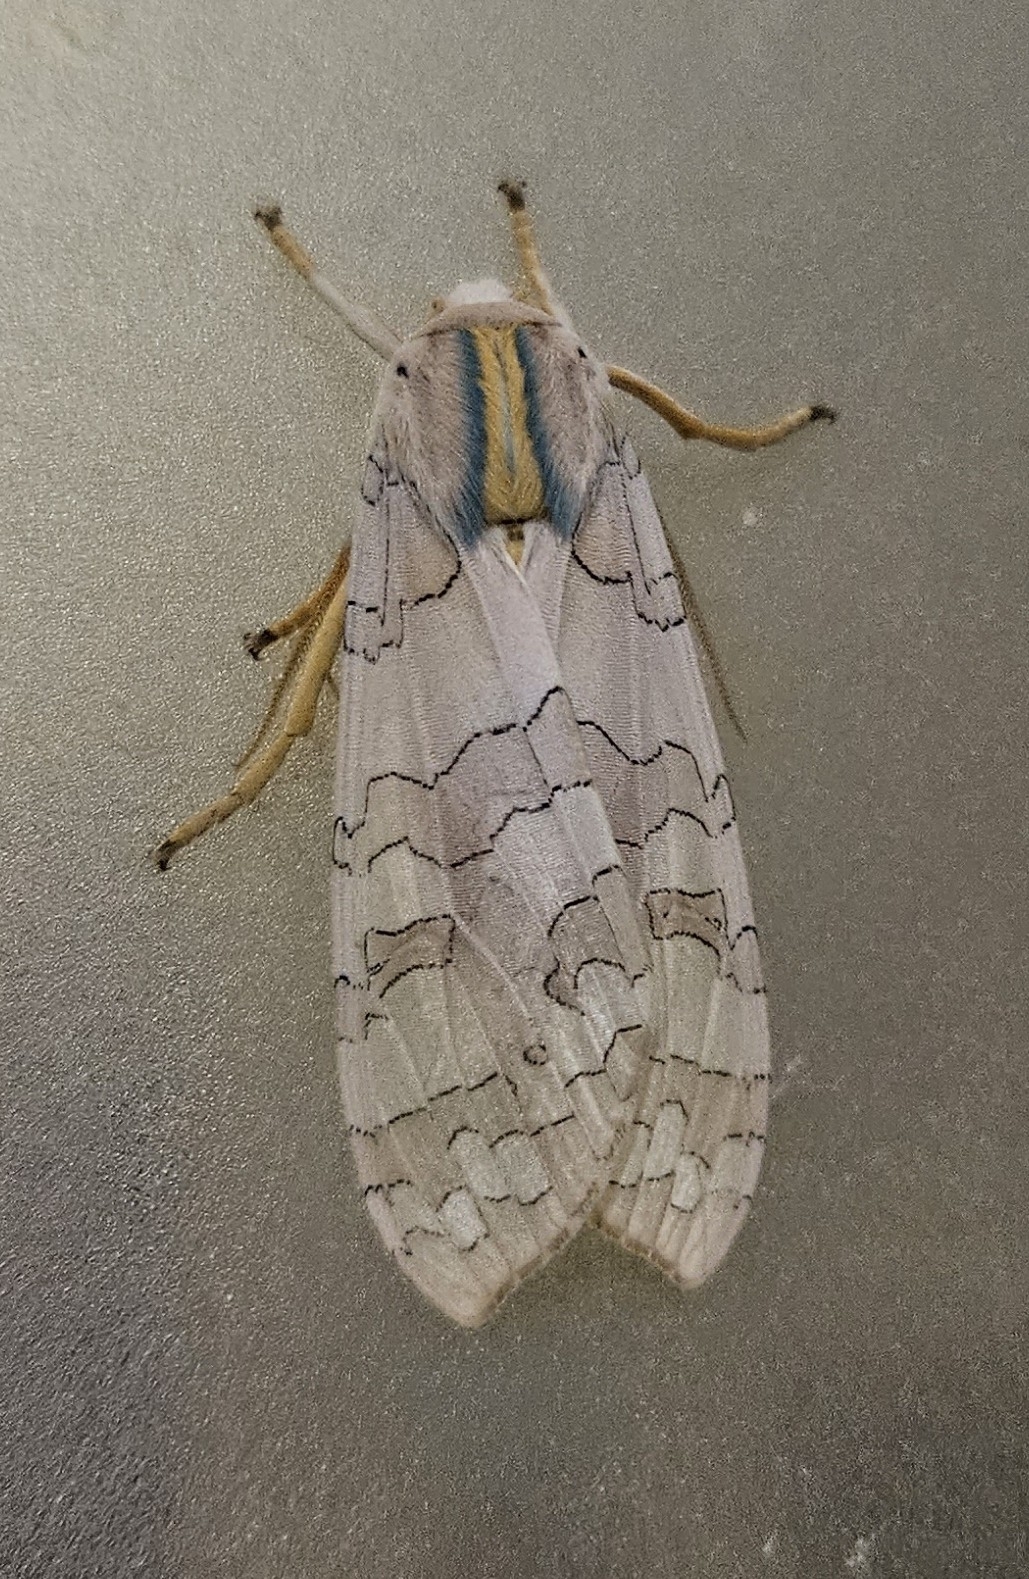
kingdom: Animalia
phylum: Arthropoda
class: Insecta
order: Lepidoptera
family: Erebidae
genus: Halysidota
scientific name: Halysidota
